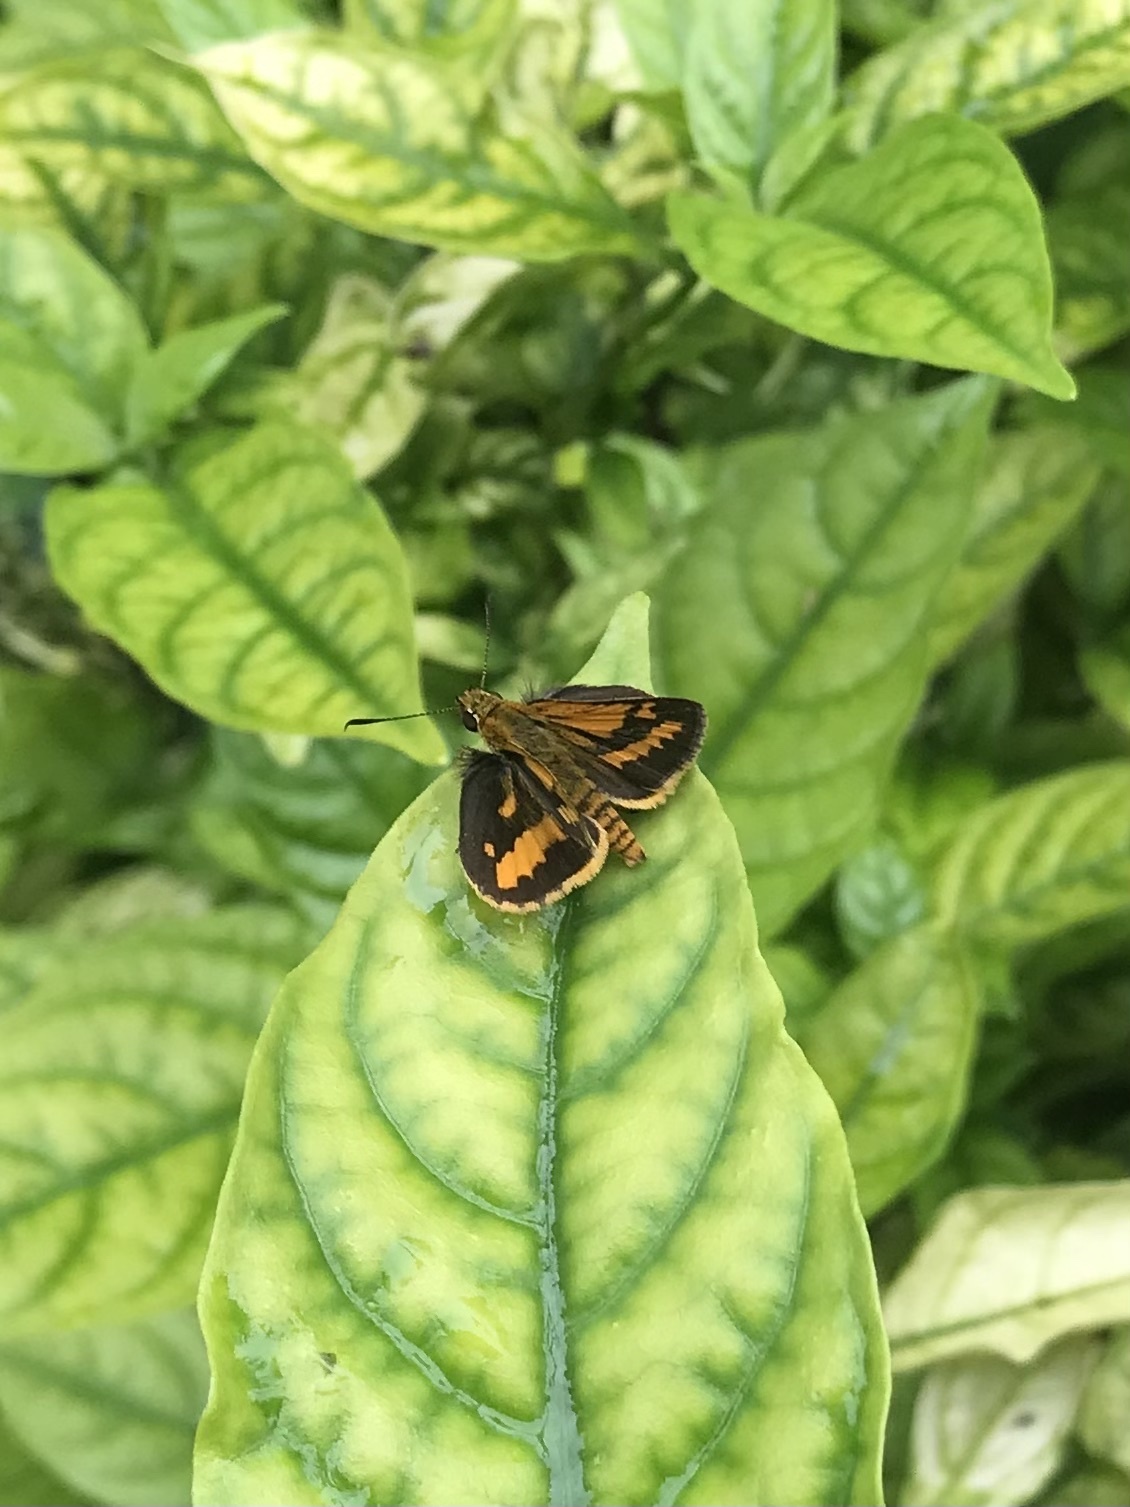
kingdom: Animalia
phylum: Arthropoda
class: Insecta
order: Lepidoptera
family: Hesperiidae
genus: Suniana
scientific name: Suniana sunias
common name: Wide-brand grass-dart
